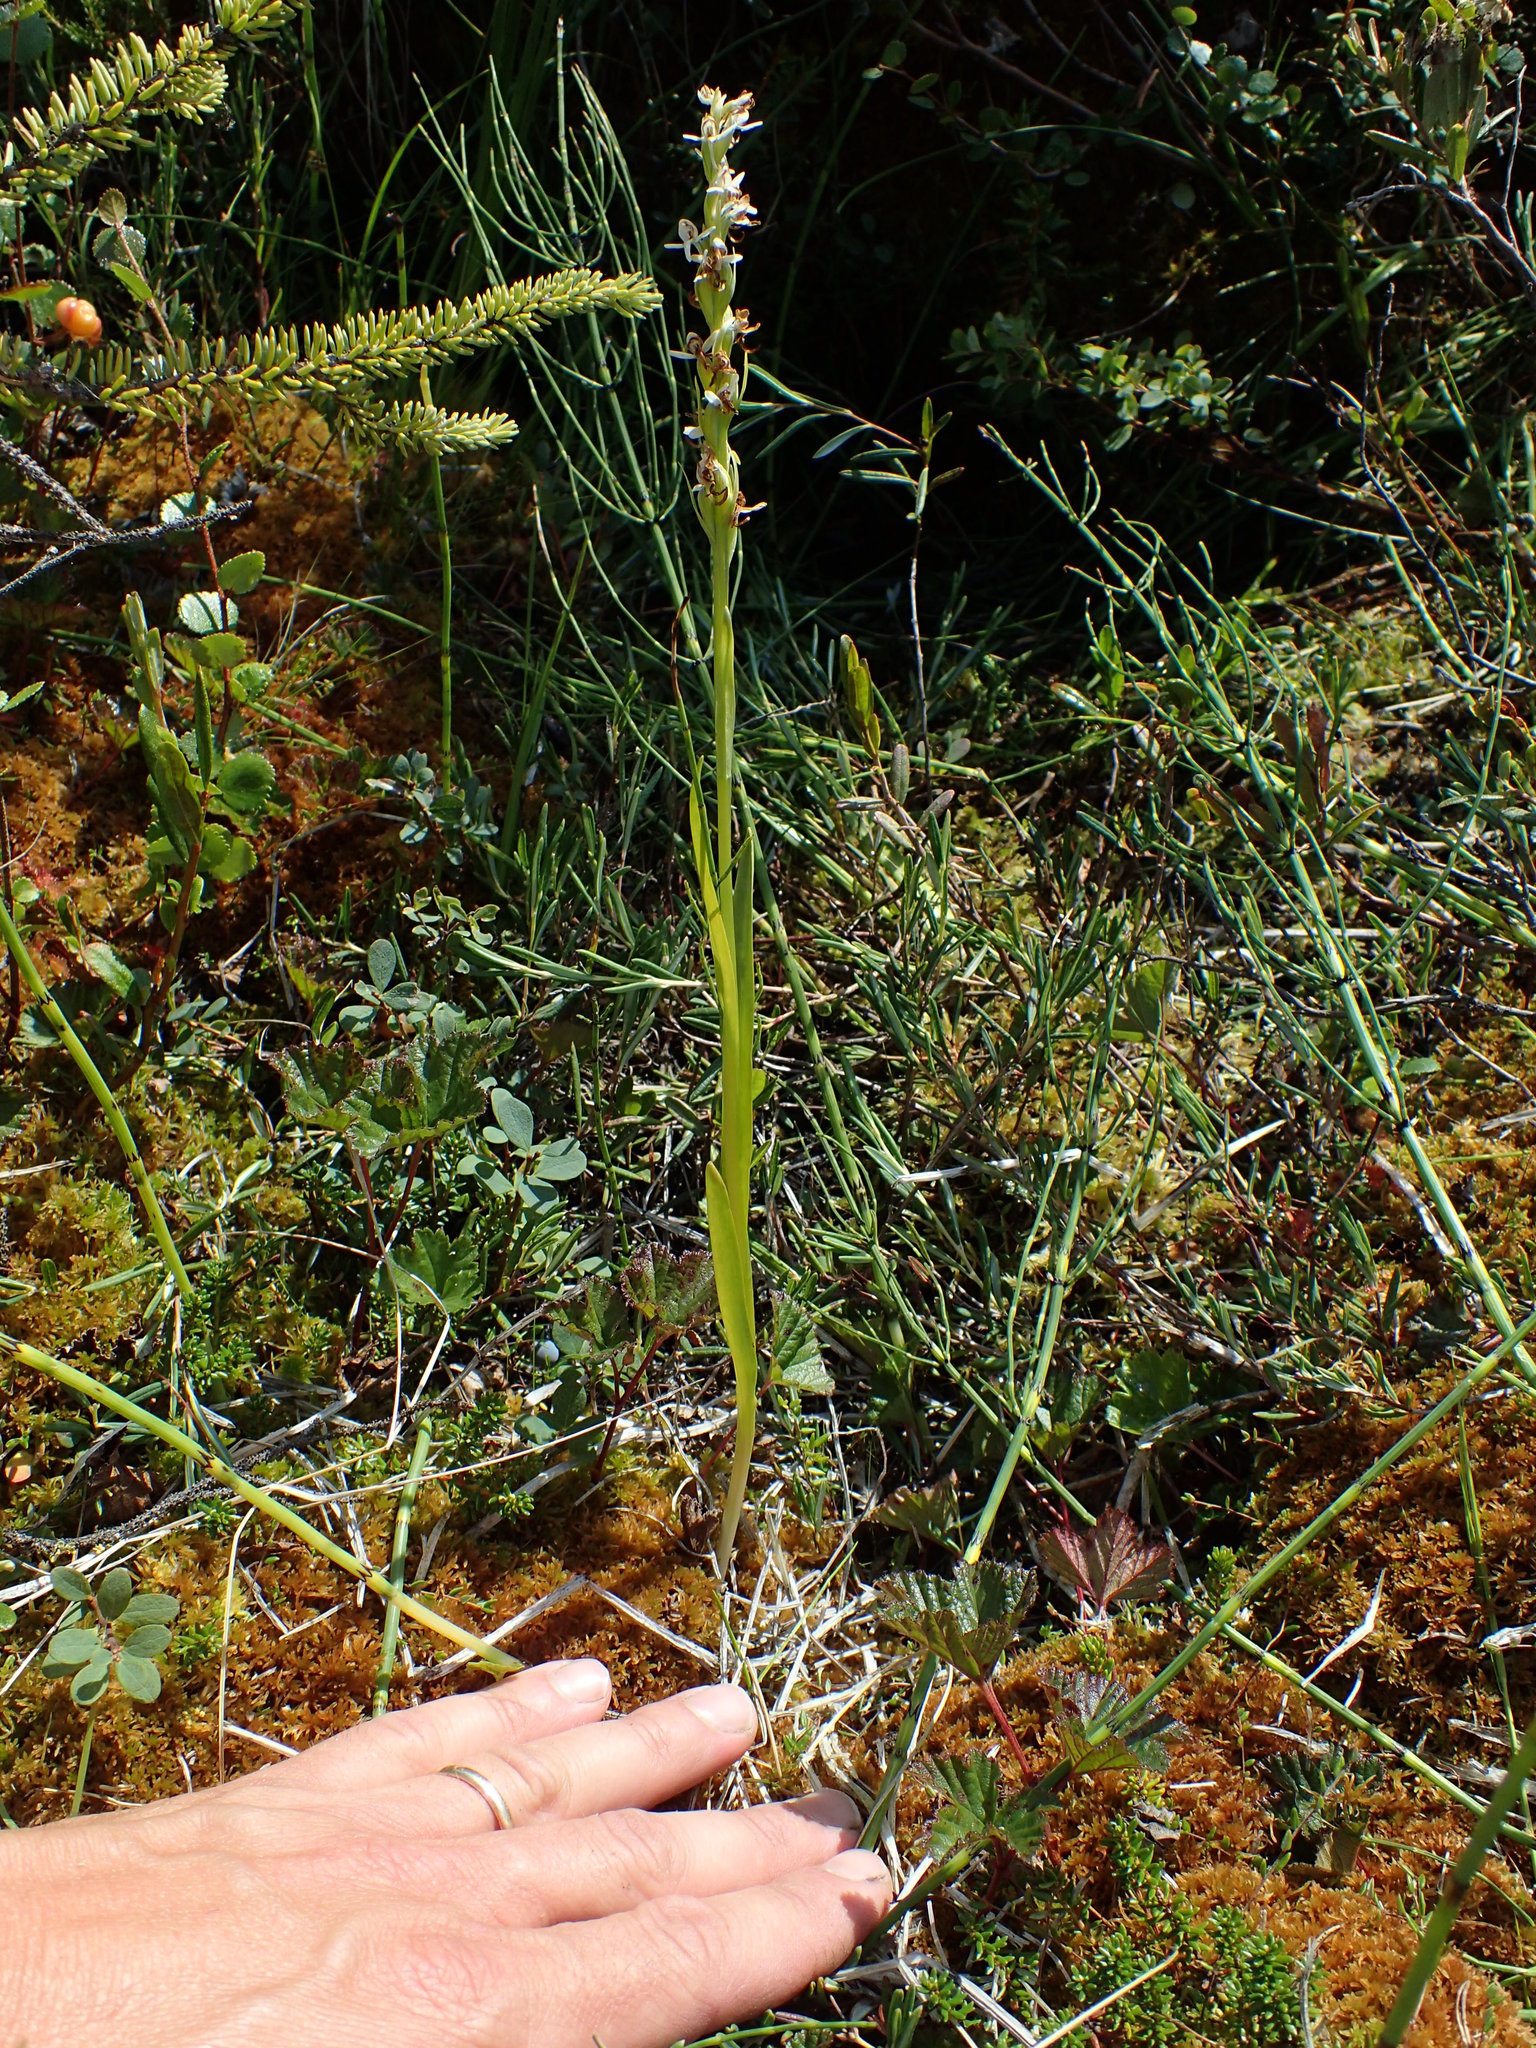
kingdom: Plantae
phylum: Tracheophyta
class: Liliopsida
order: Asparagales
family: Orchidaceae
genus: Platanthera
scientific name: Platanthera dilatata
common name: Bog candles
